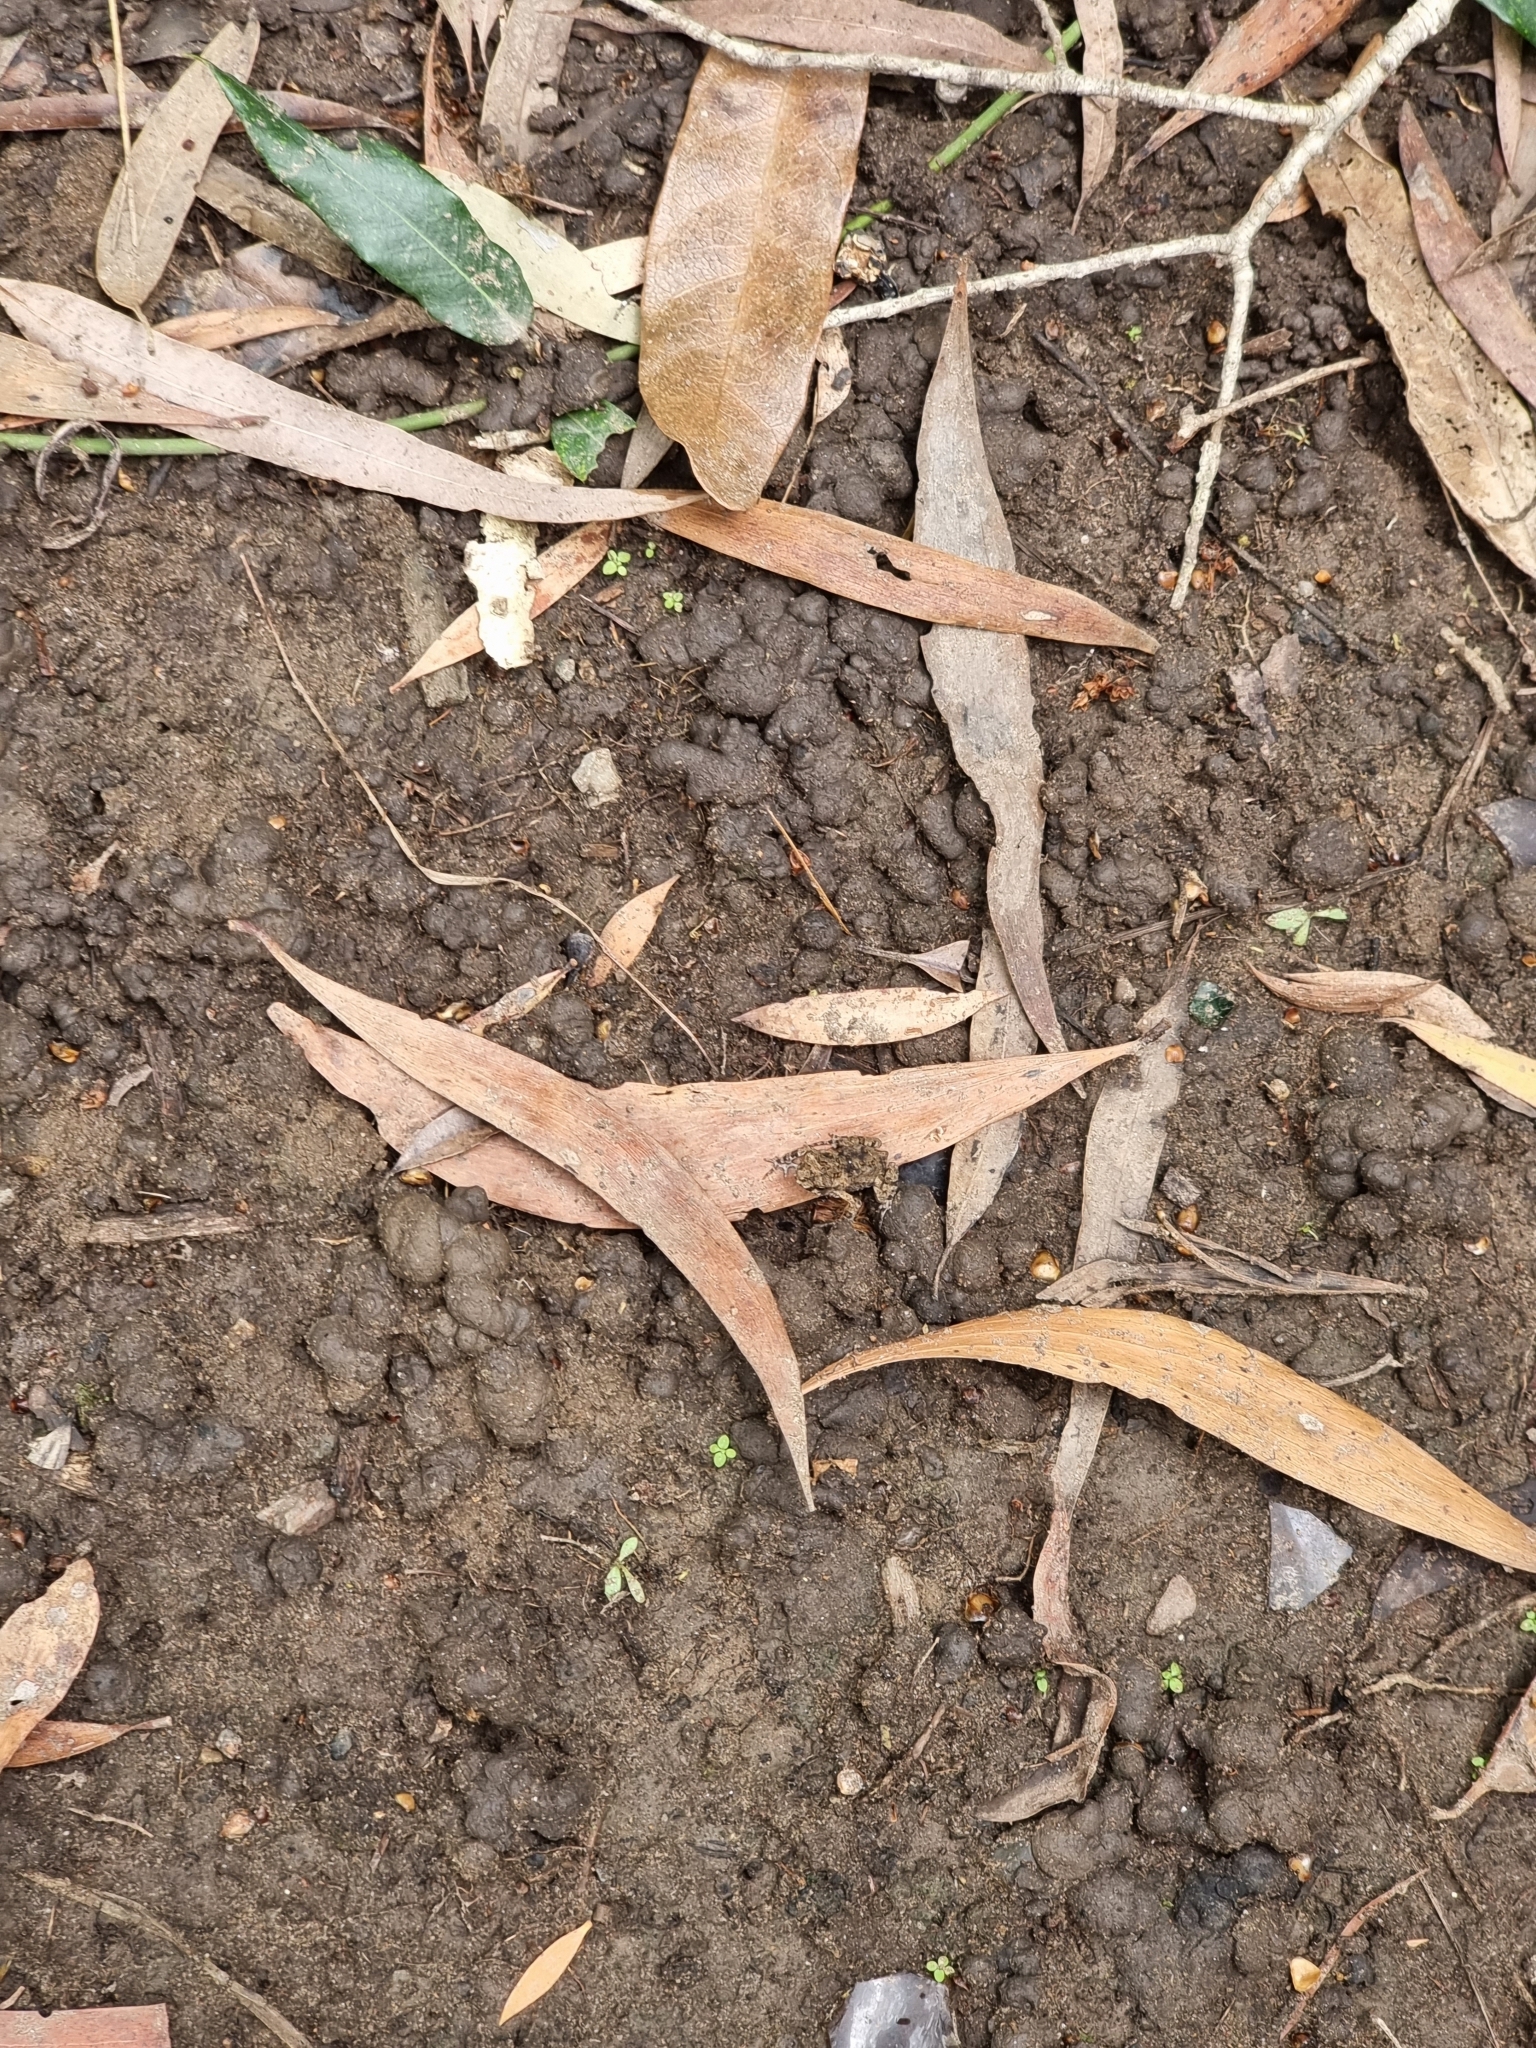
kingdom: Animalia
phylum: Chordata
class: Amphibia
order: Anura
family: Bufonidae
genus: Rhinella
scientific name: Rhinella marina
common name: Cane toad
